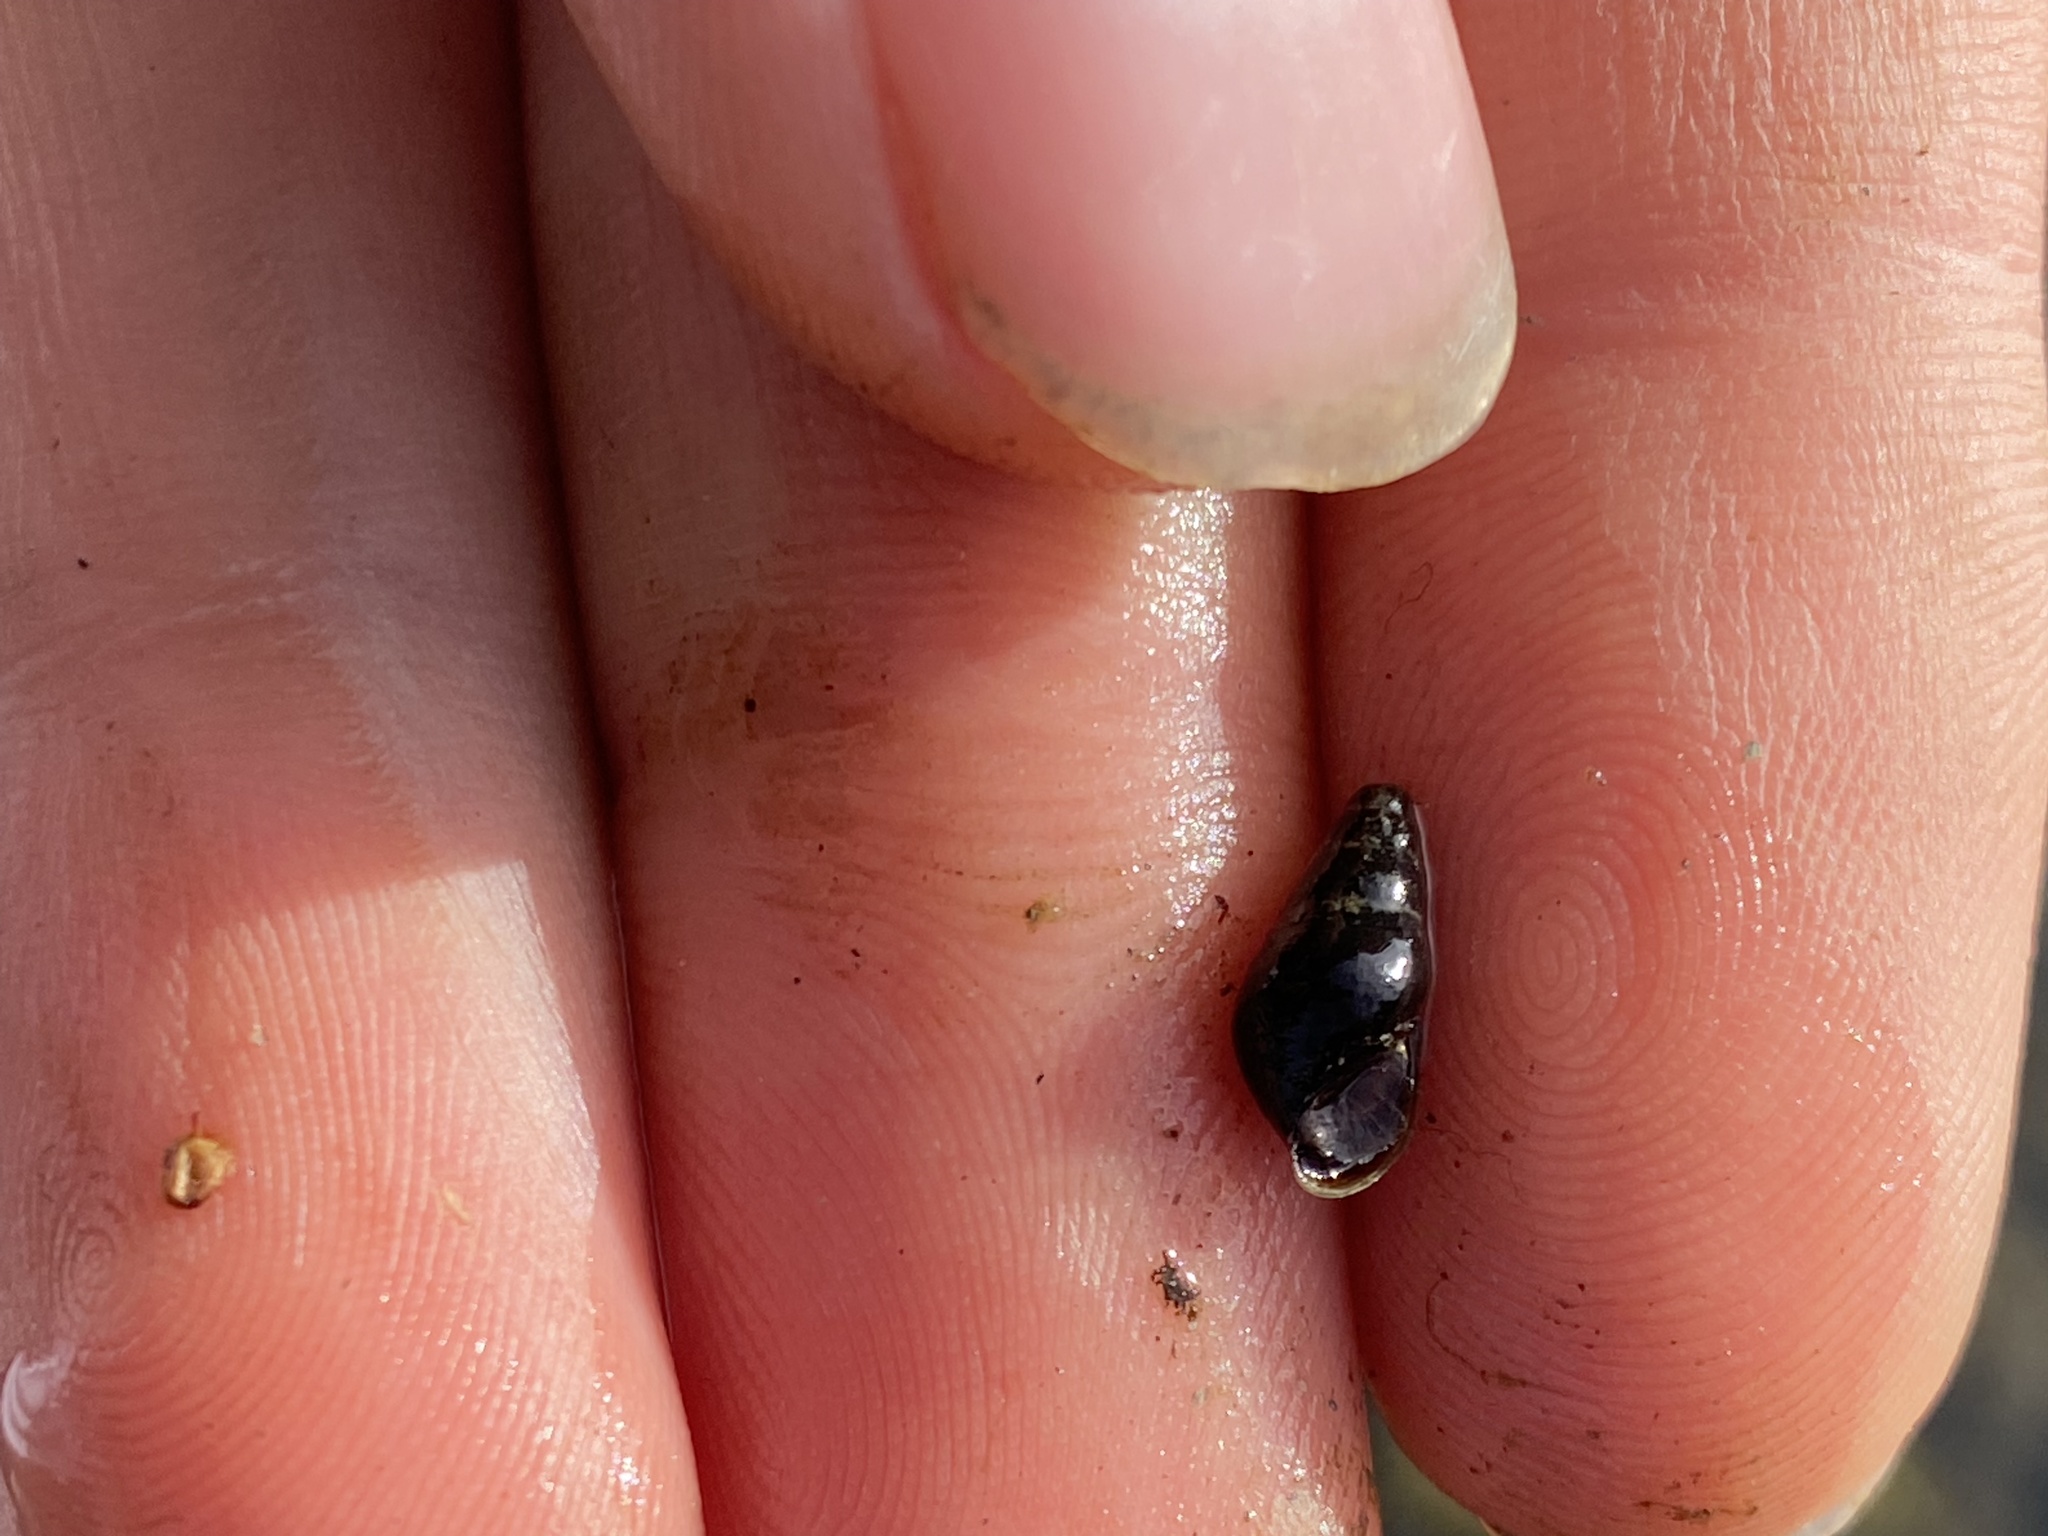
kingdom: Animalia
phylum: Mollusca
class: Gastropoda
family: Semisulcospiridae
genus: Juga
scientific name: Juga nigrina
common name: Black juga
